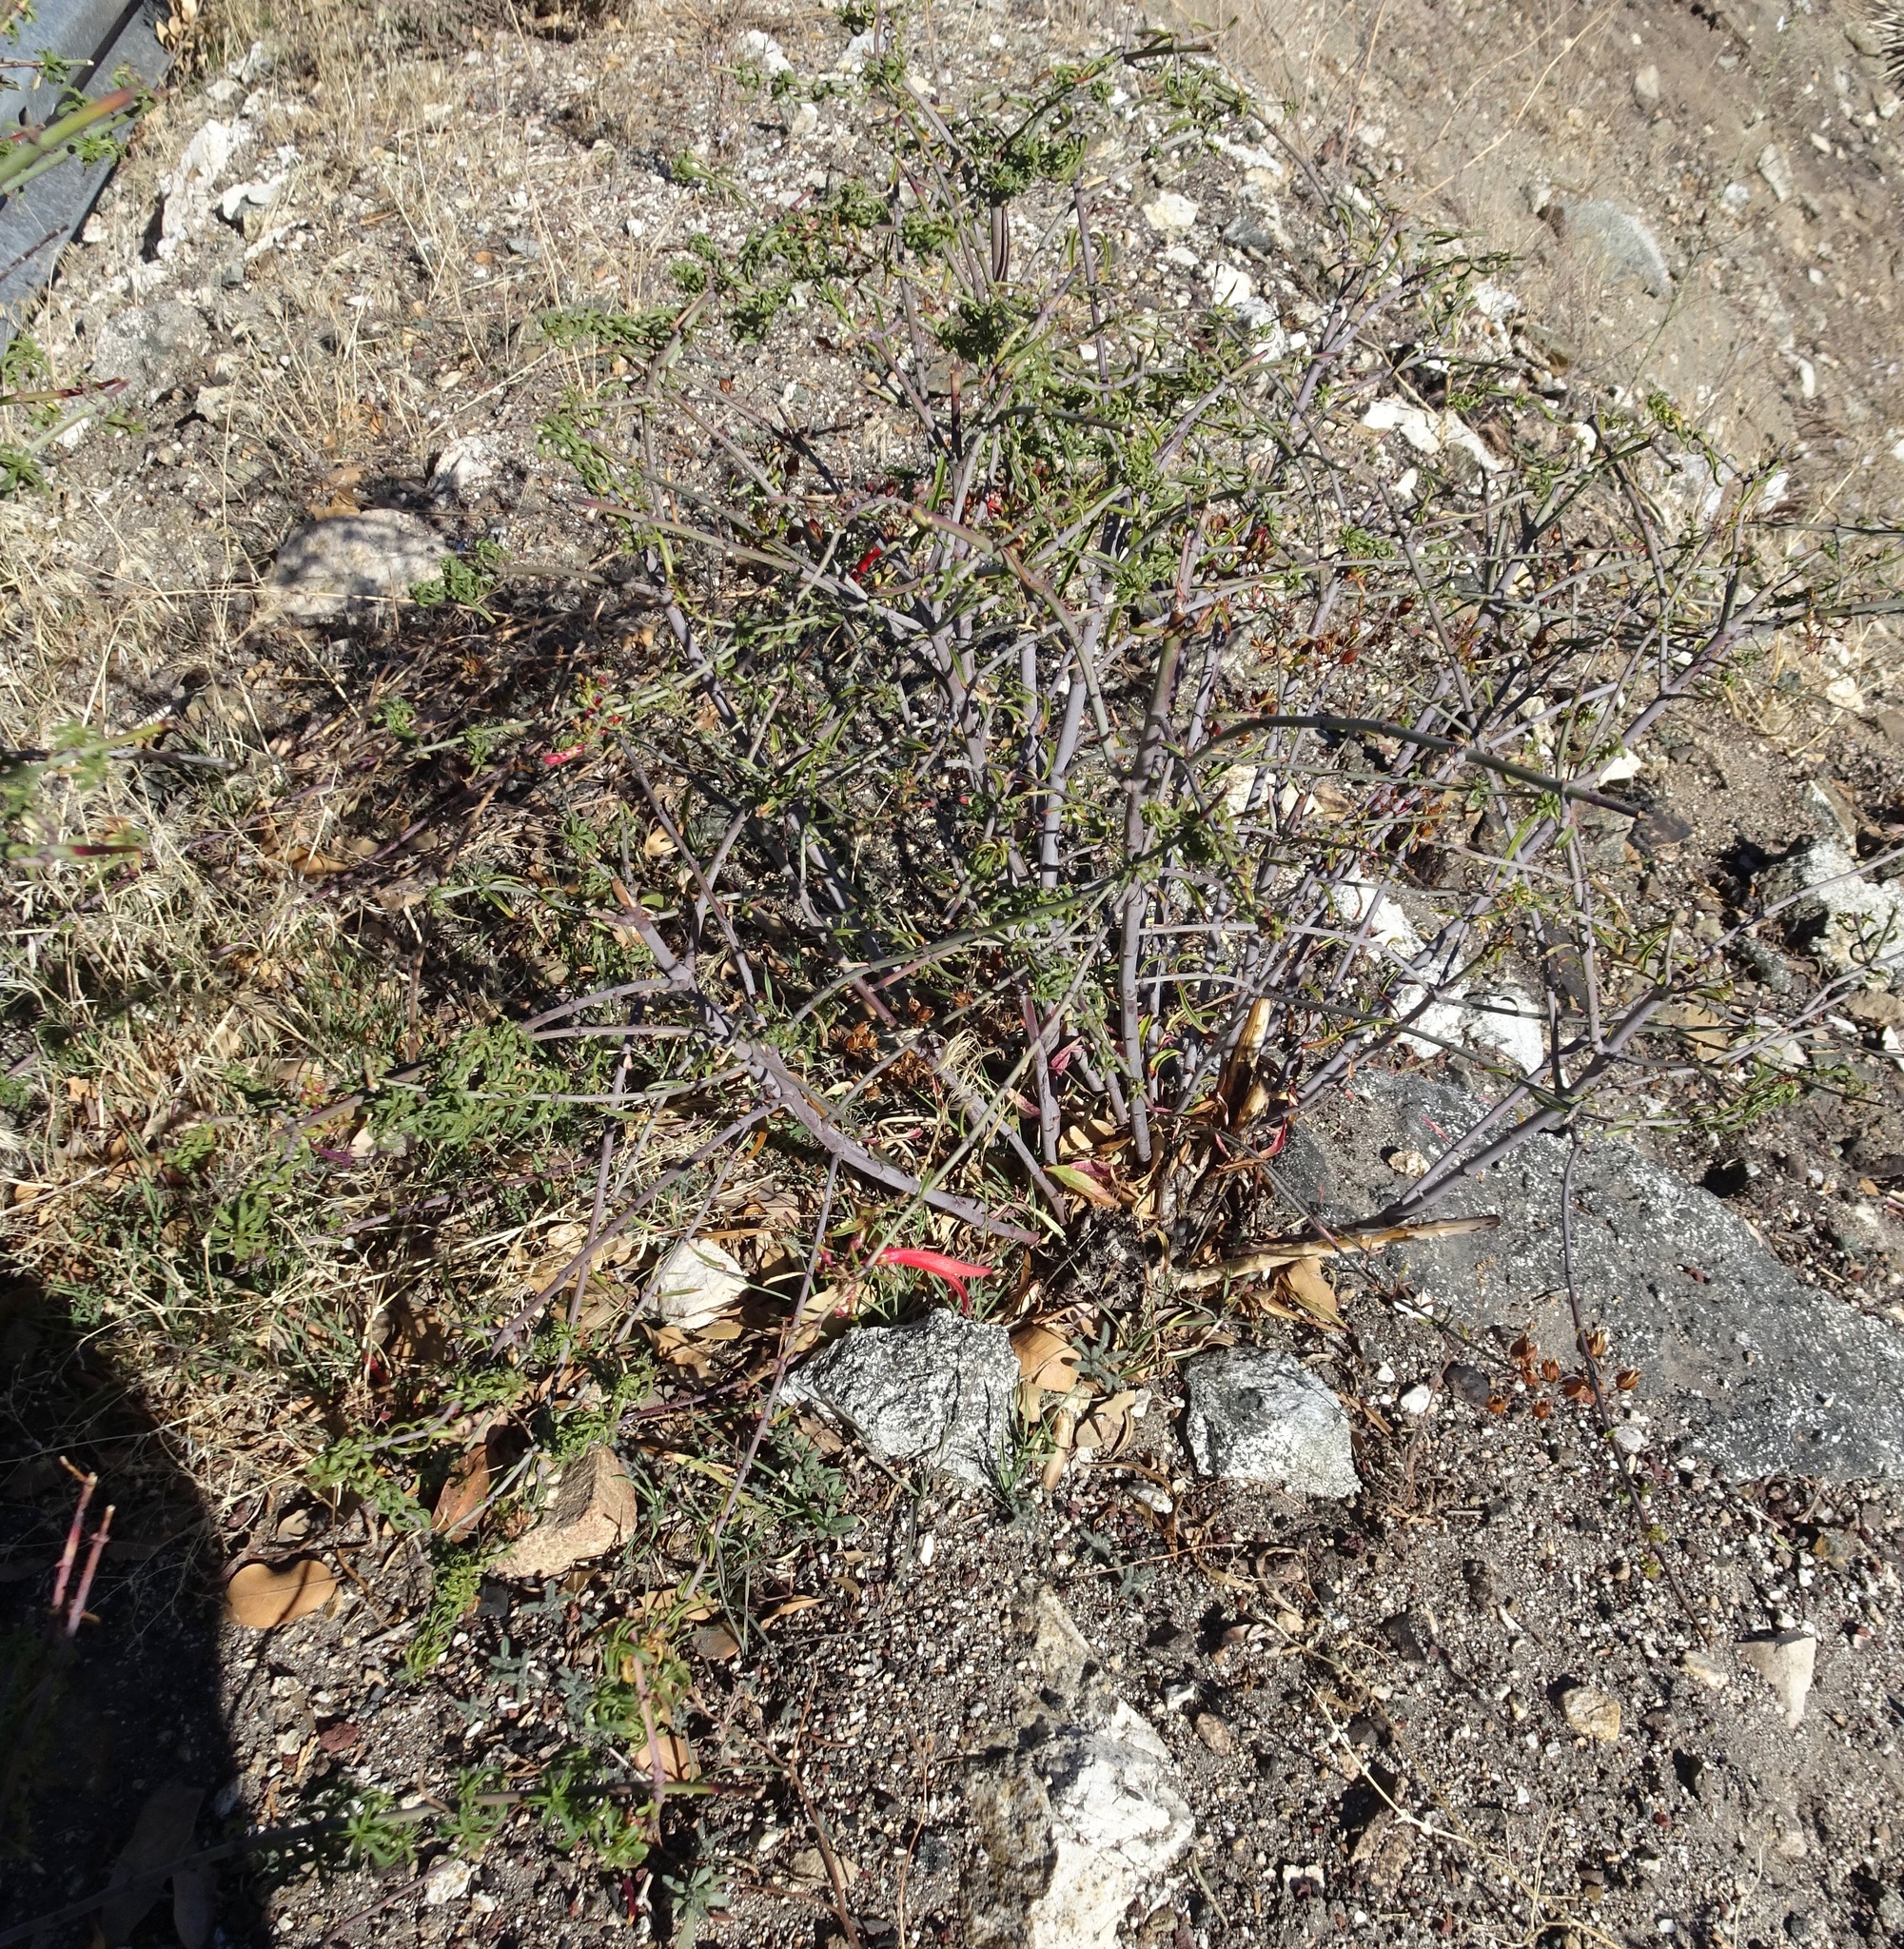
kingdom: Plantae
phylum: Tracheophyta
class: Magnoliopsida
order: Lamiales
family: Plantaginaceae
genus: Keckiella
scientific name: Keckiella ternata
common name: Scarlet keckiella
